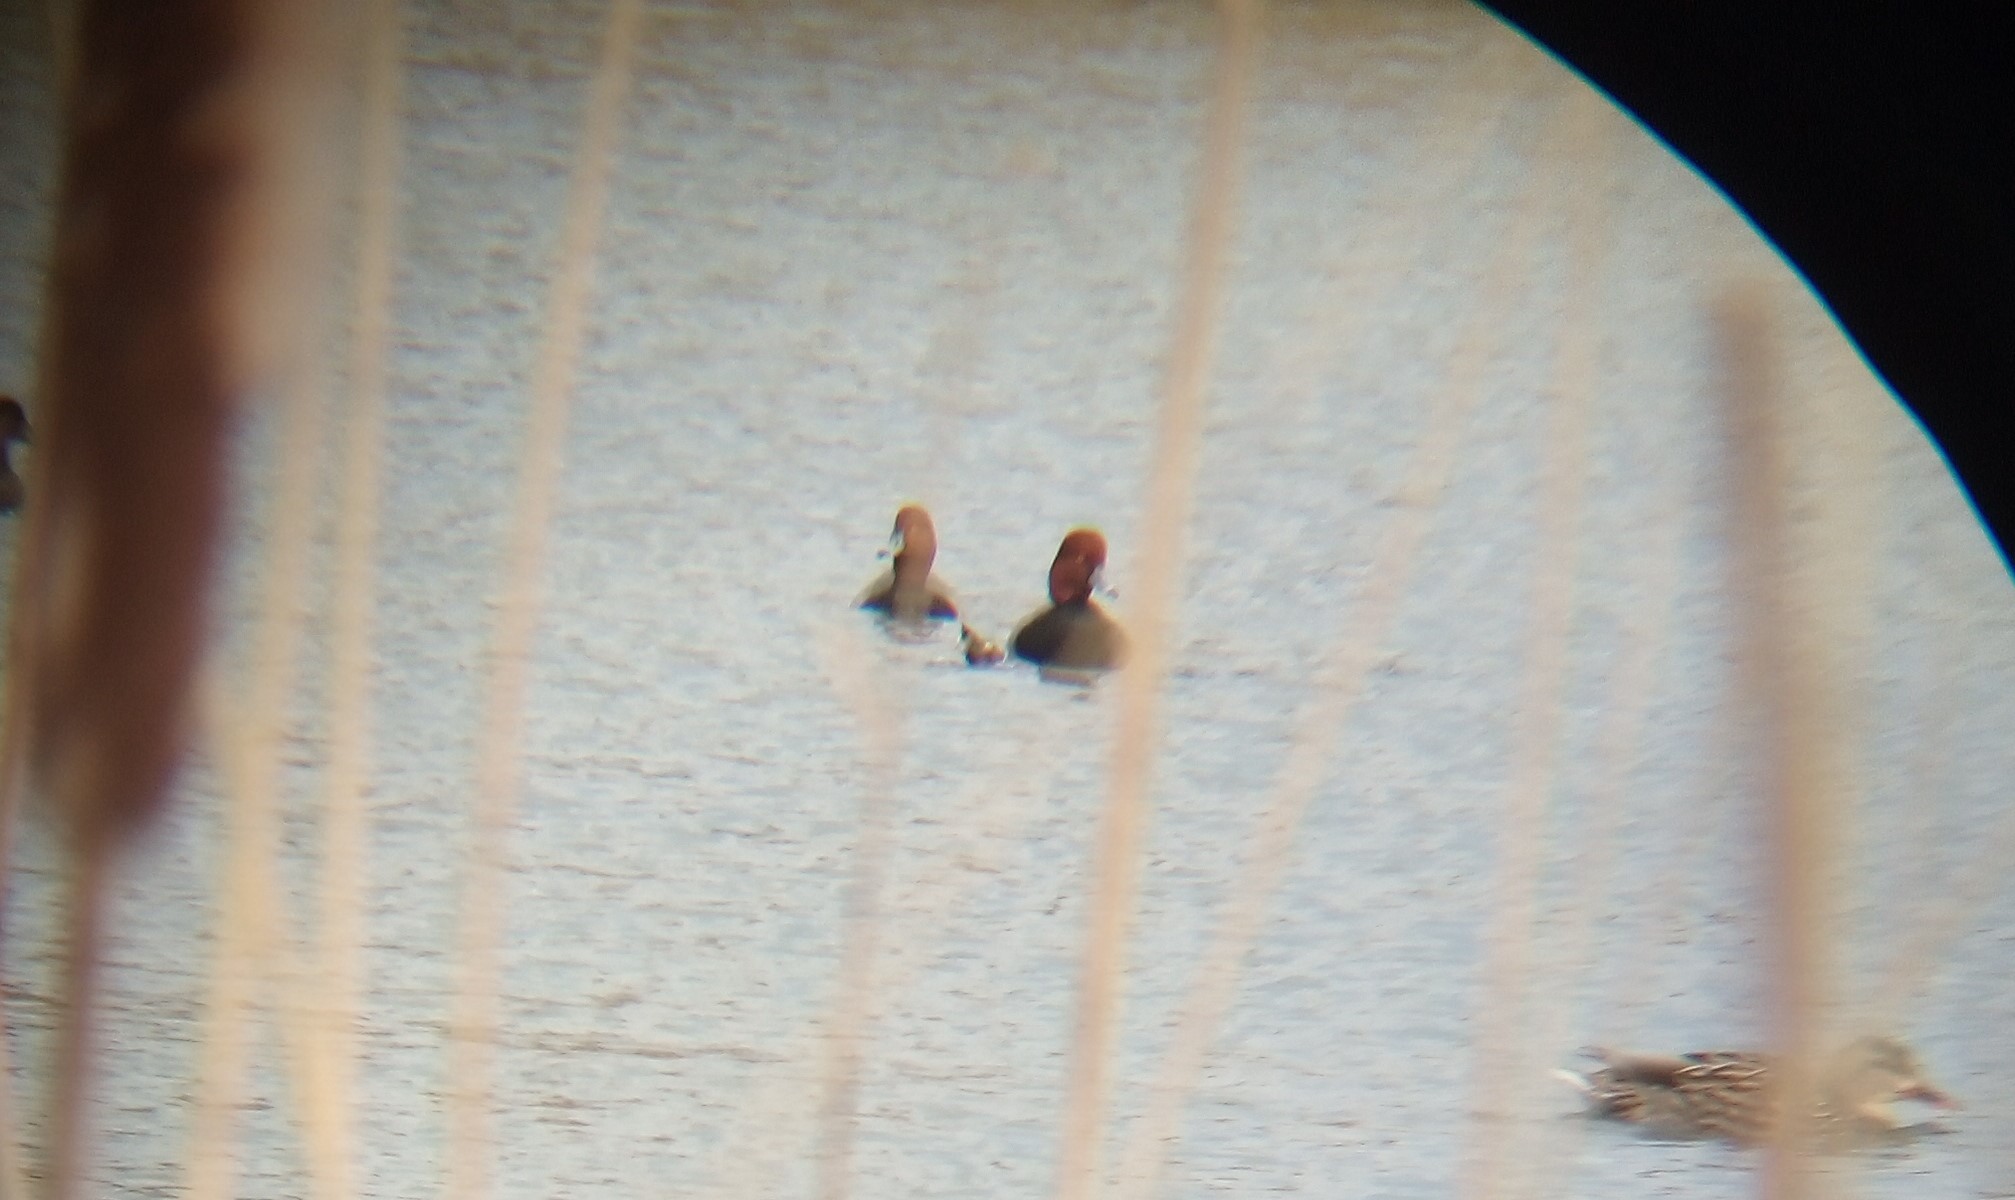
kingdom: Animalia
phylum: Chordata
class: Aves
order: Anseriformes
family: Anatidae
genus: Aythya
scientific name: Aythya americana
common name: Redhead
